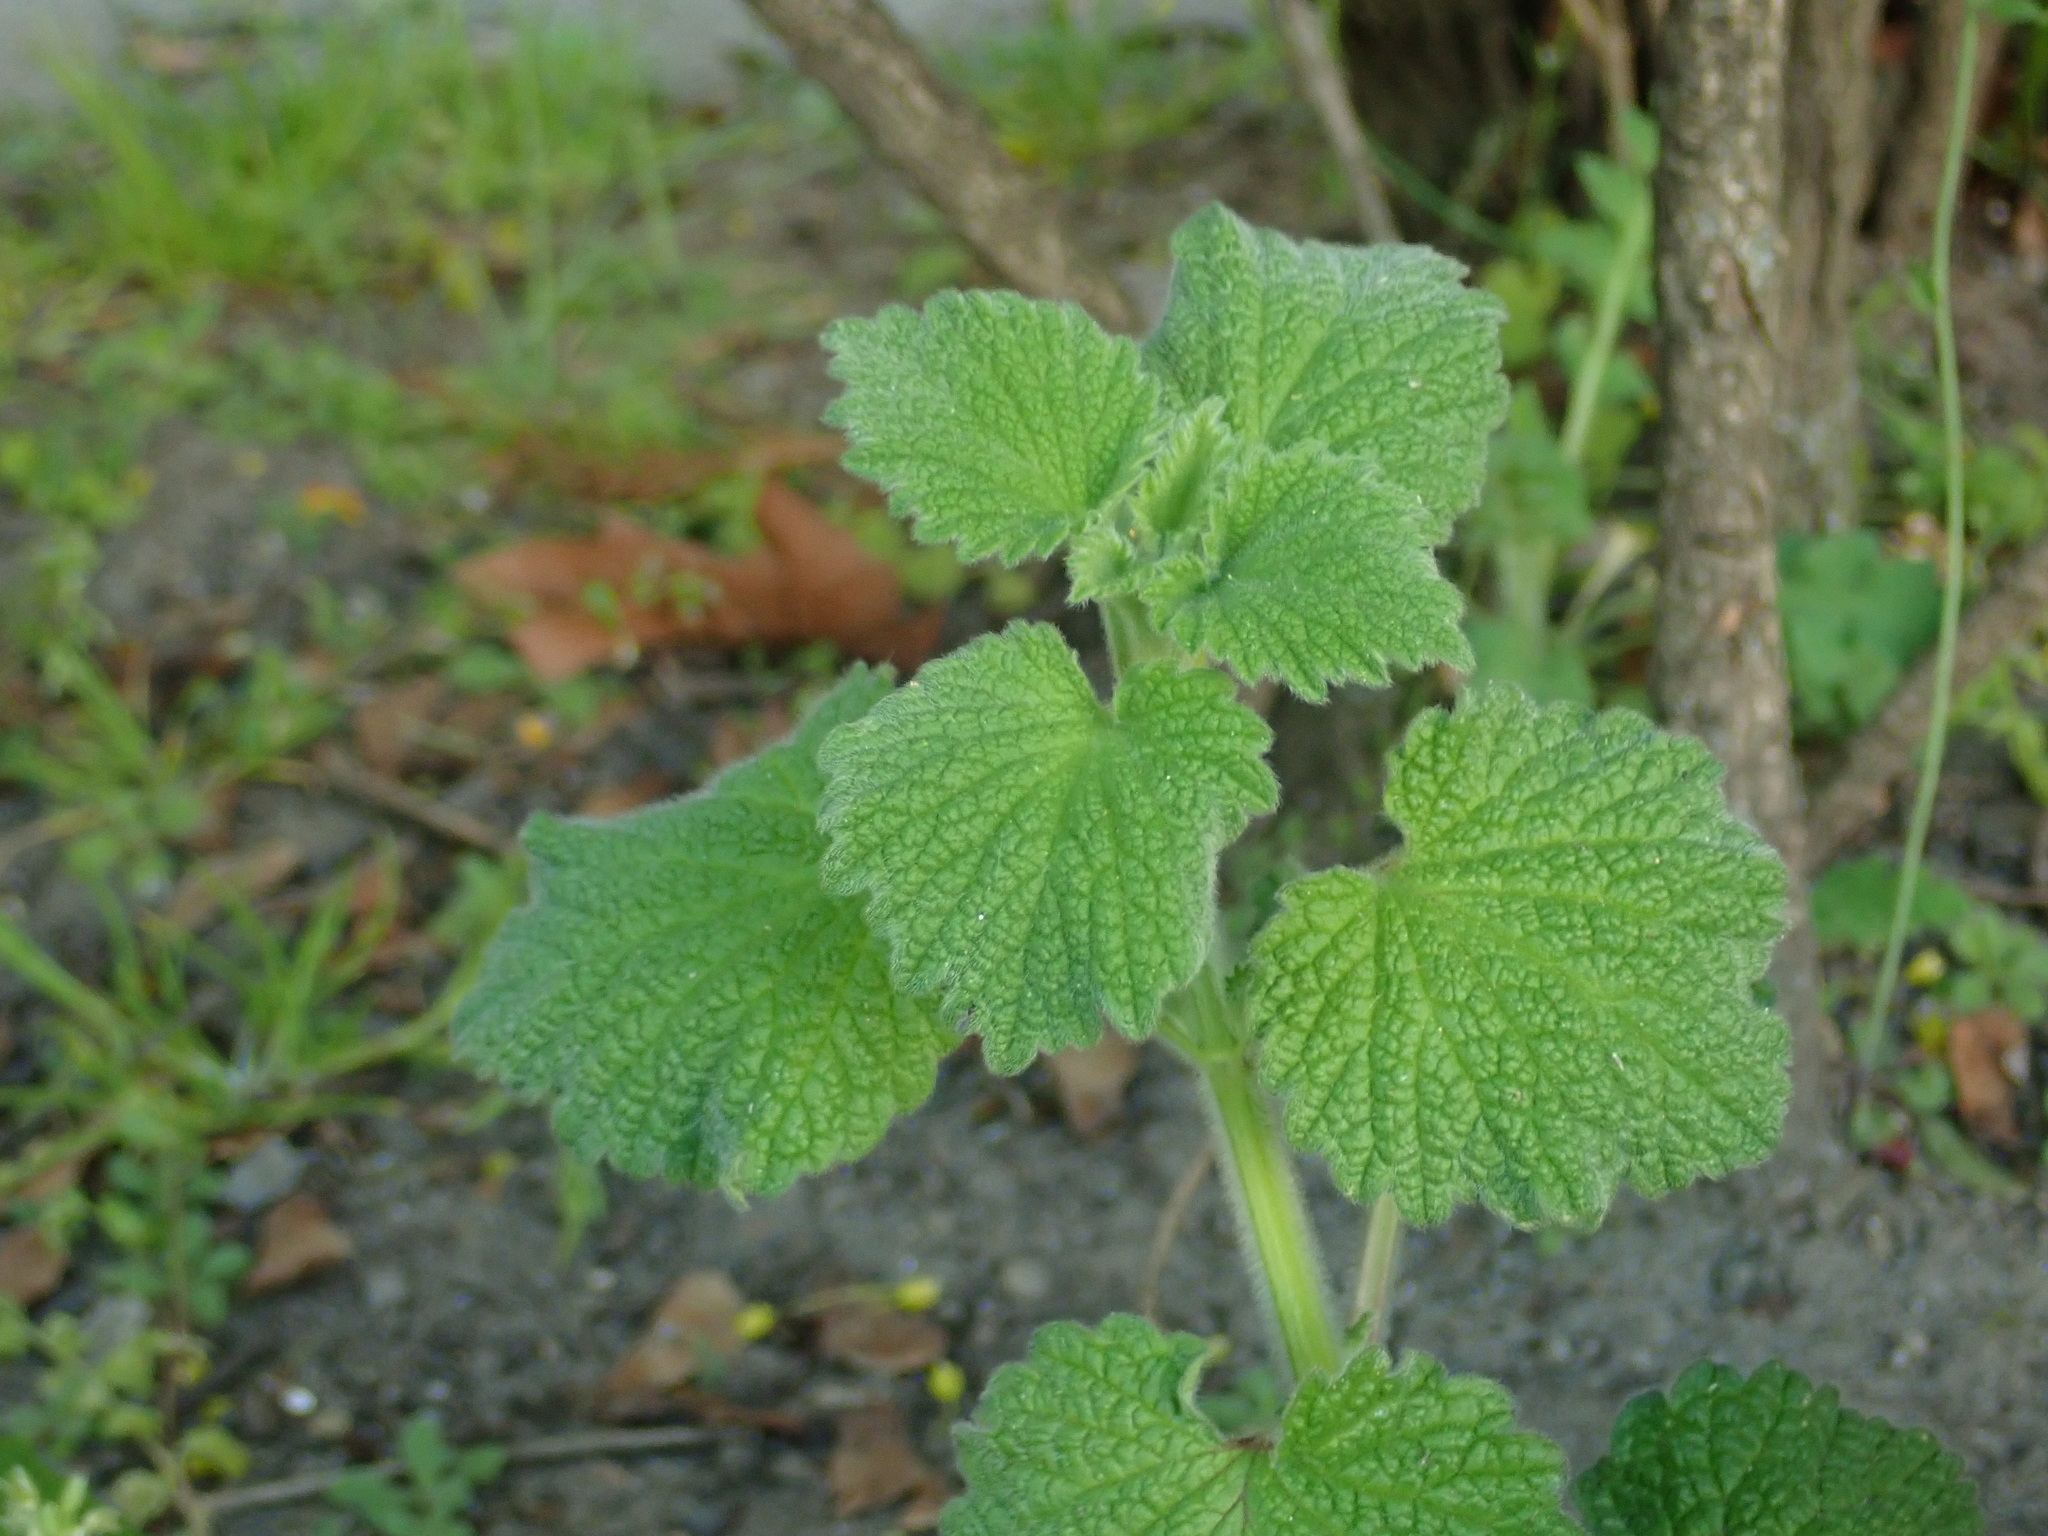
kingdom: Plantae
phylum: Tracheophyta
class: Magnoliopsida
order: Lamiales
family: Lamiaceae
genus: Ballota
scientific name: Ballota nigra
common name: Black horehound
